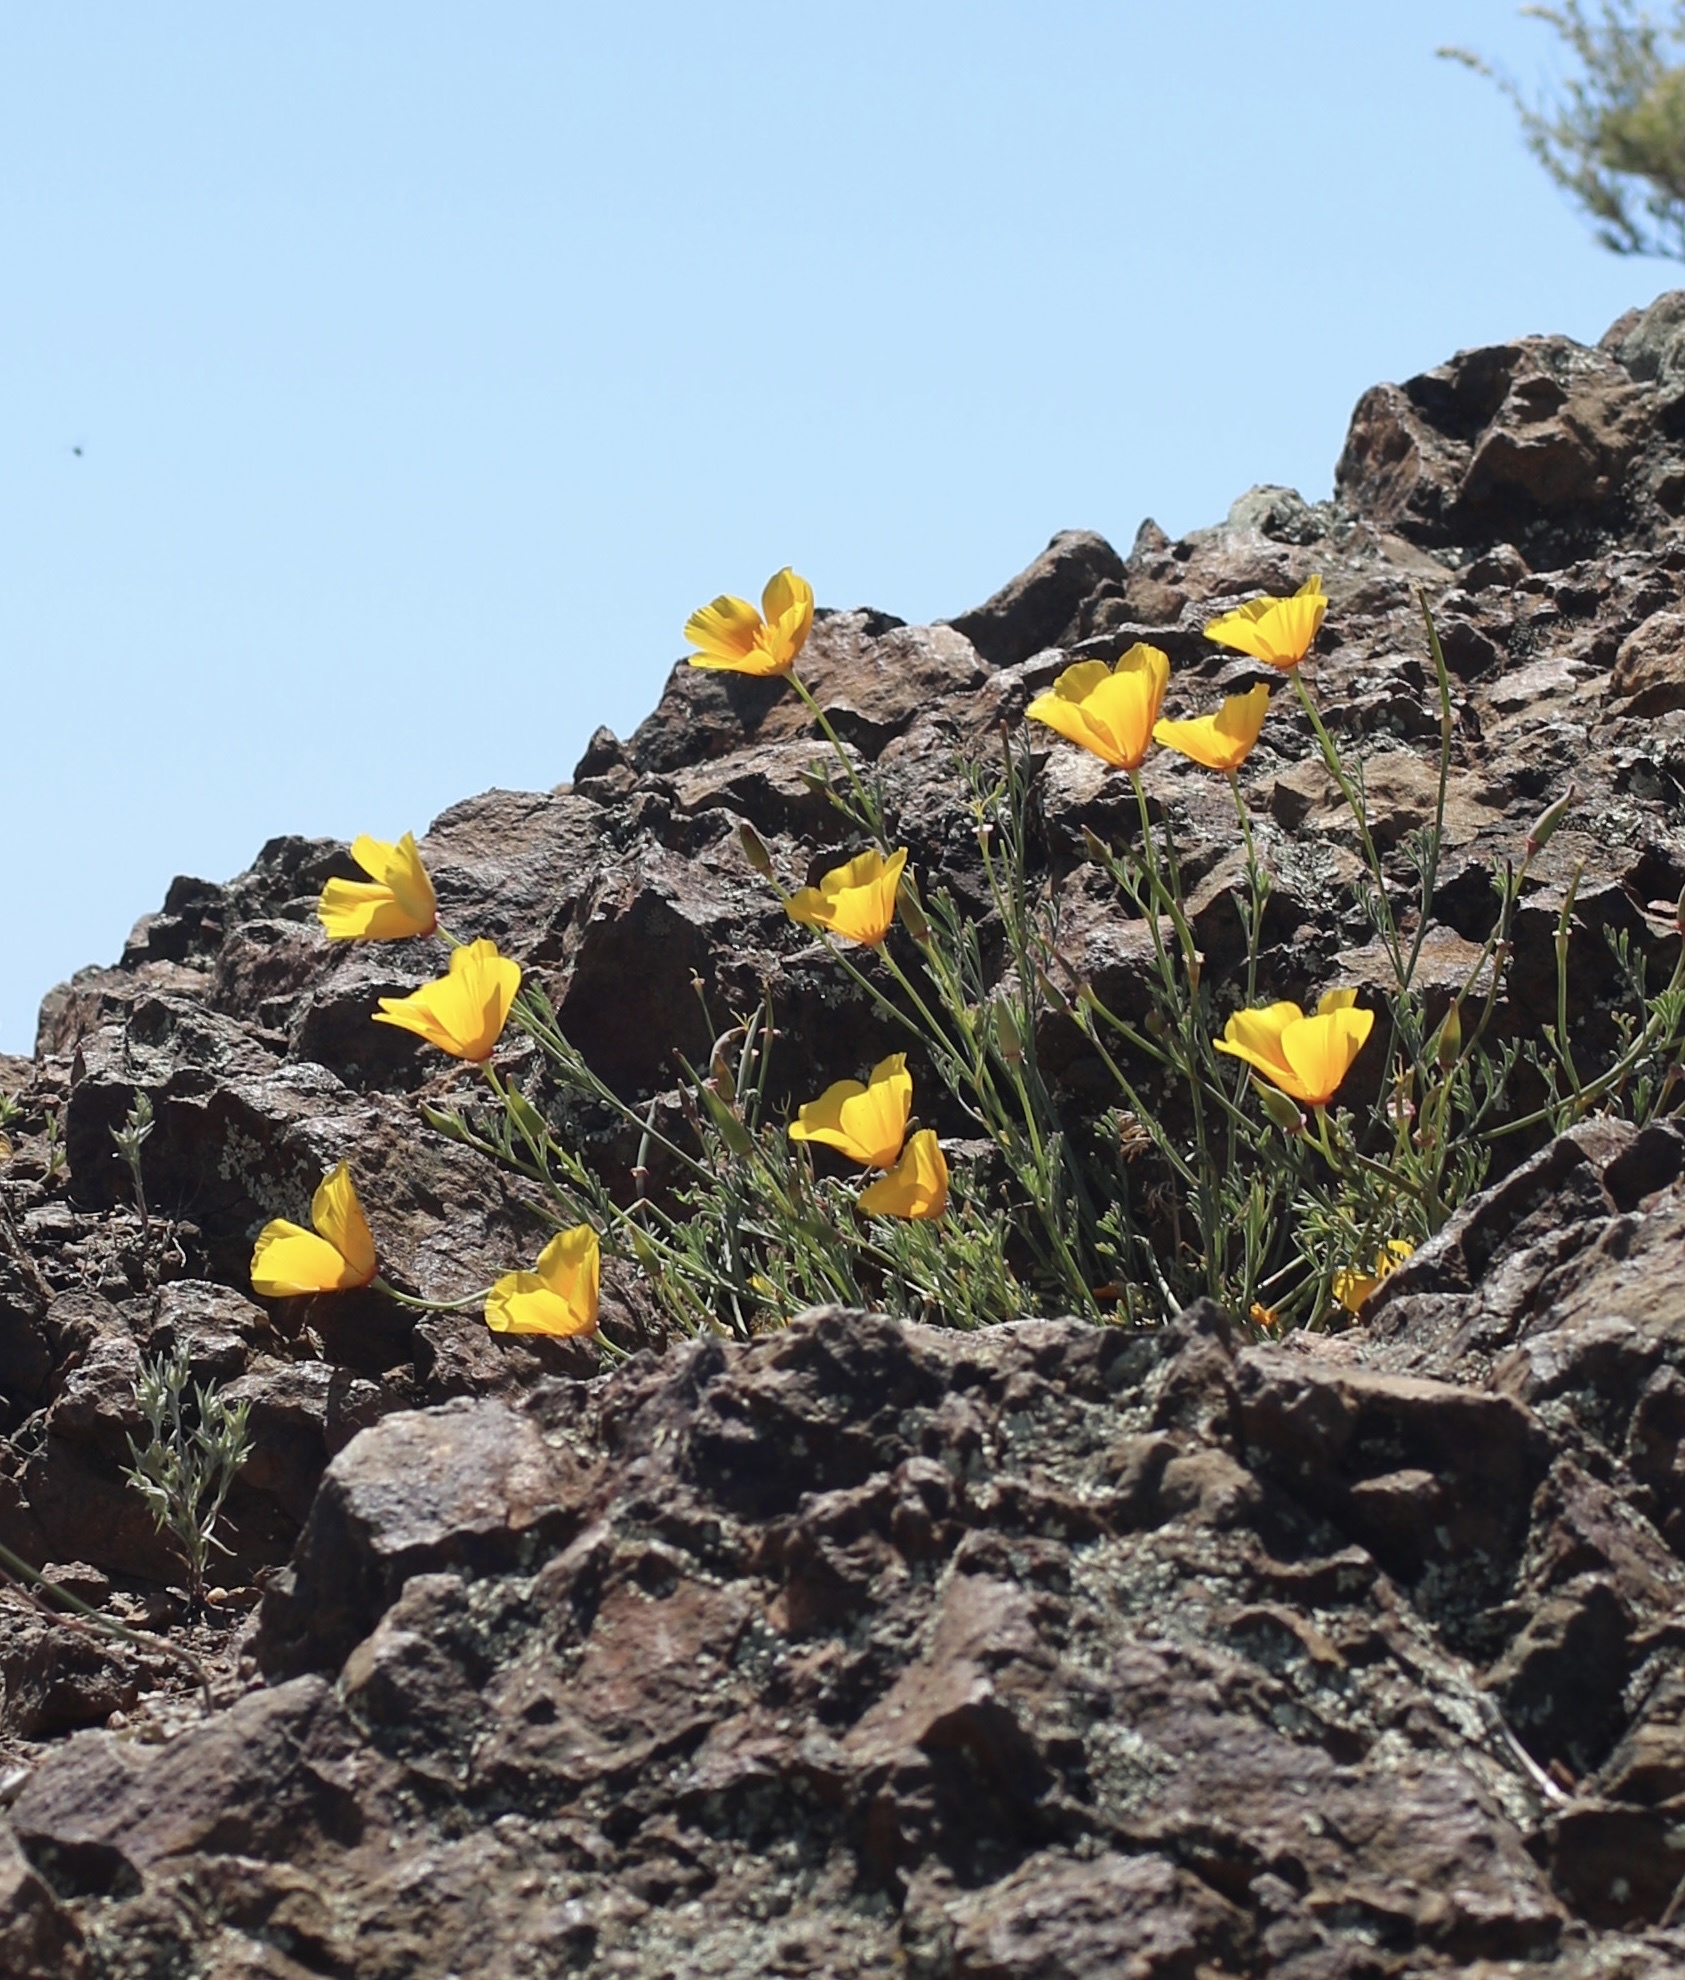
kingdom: Plantae
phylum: Tracheophyta
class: Magnoliopsida
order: Ranunculales
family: Papaveraceae
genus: Eschscholzia
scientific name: Eschscholzia californica
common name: California poppy
